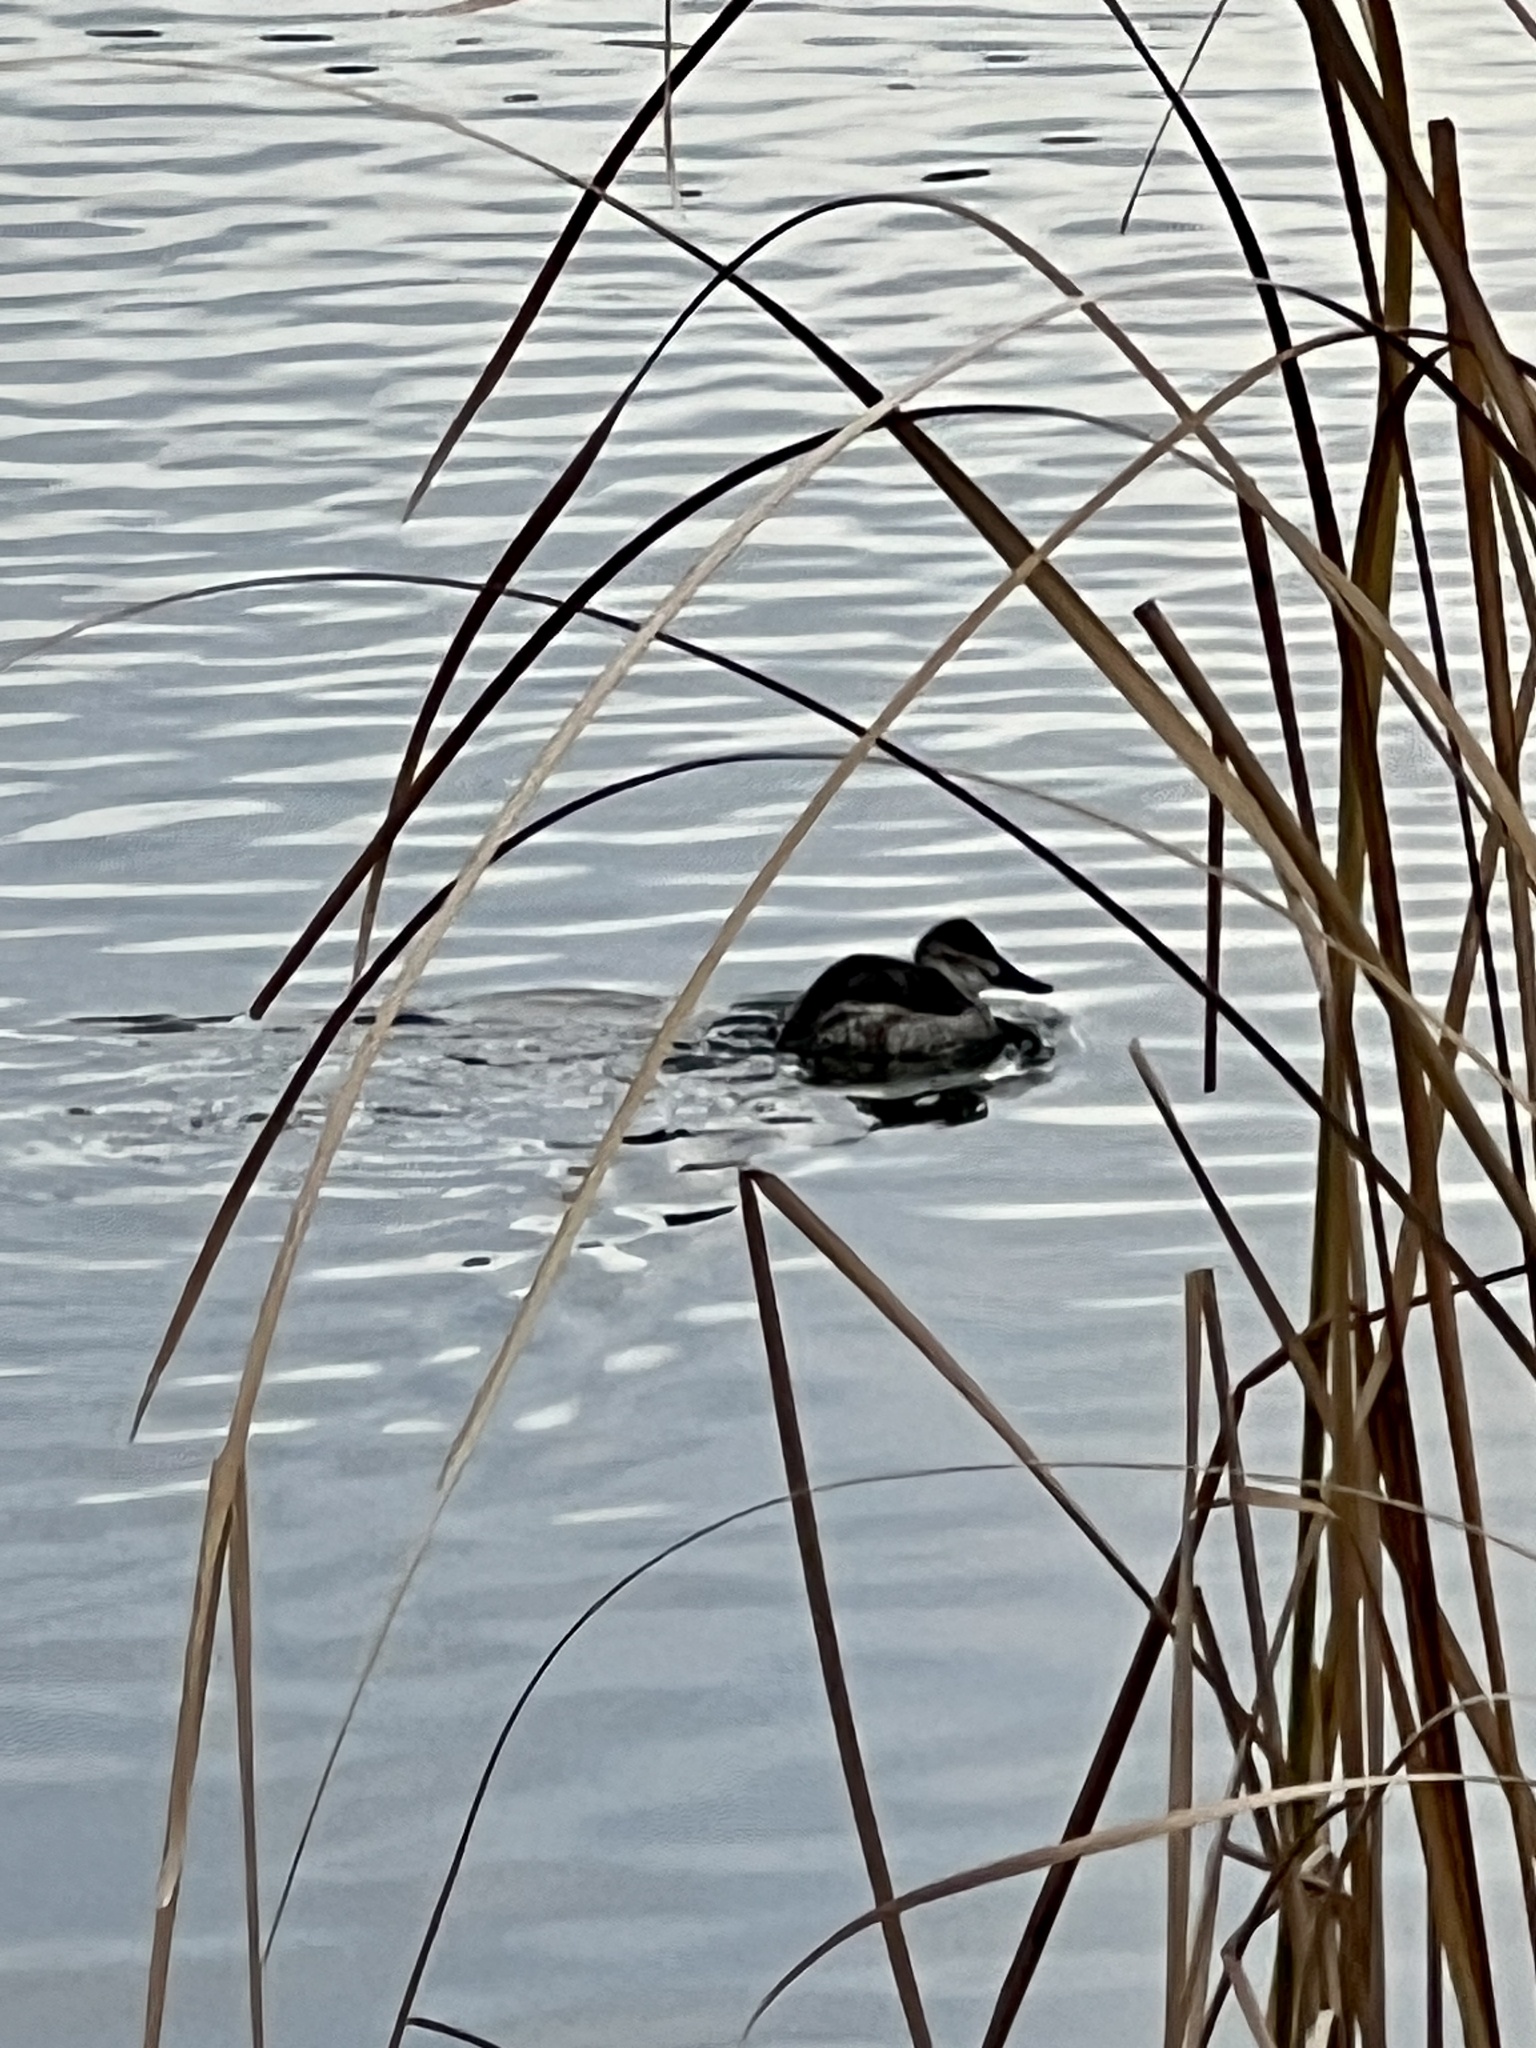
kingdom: Animalia
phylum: Chordata
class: Aves
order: Anseriformes
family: Anatidae
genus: Oxyura
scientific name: Oxyura jamaicensis
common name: Ruddy duck
